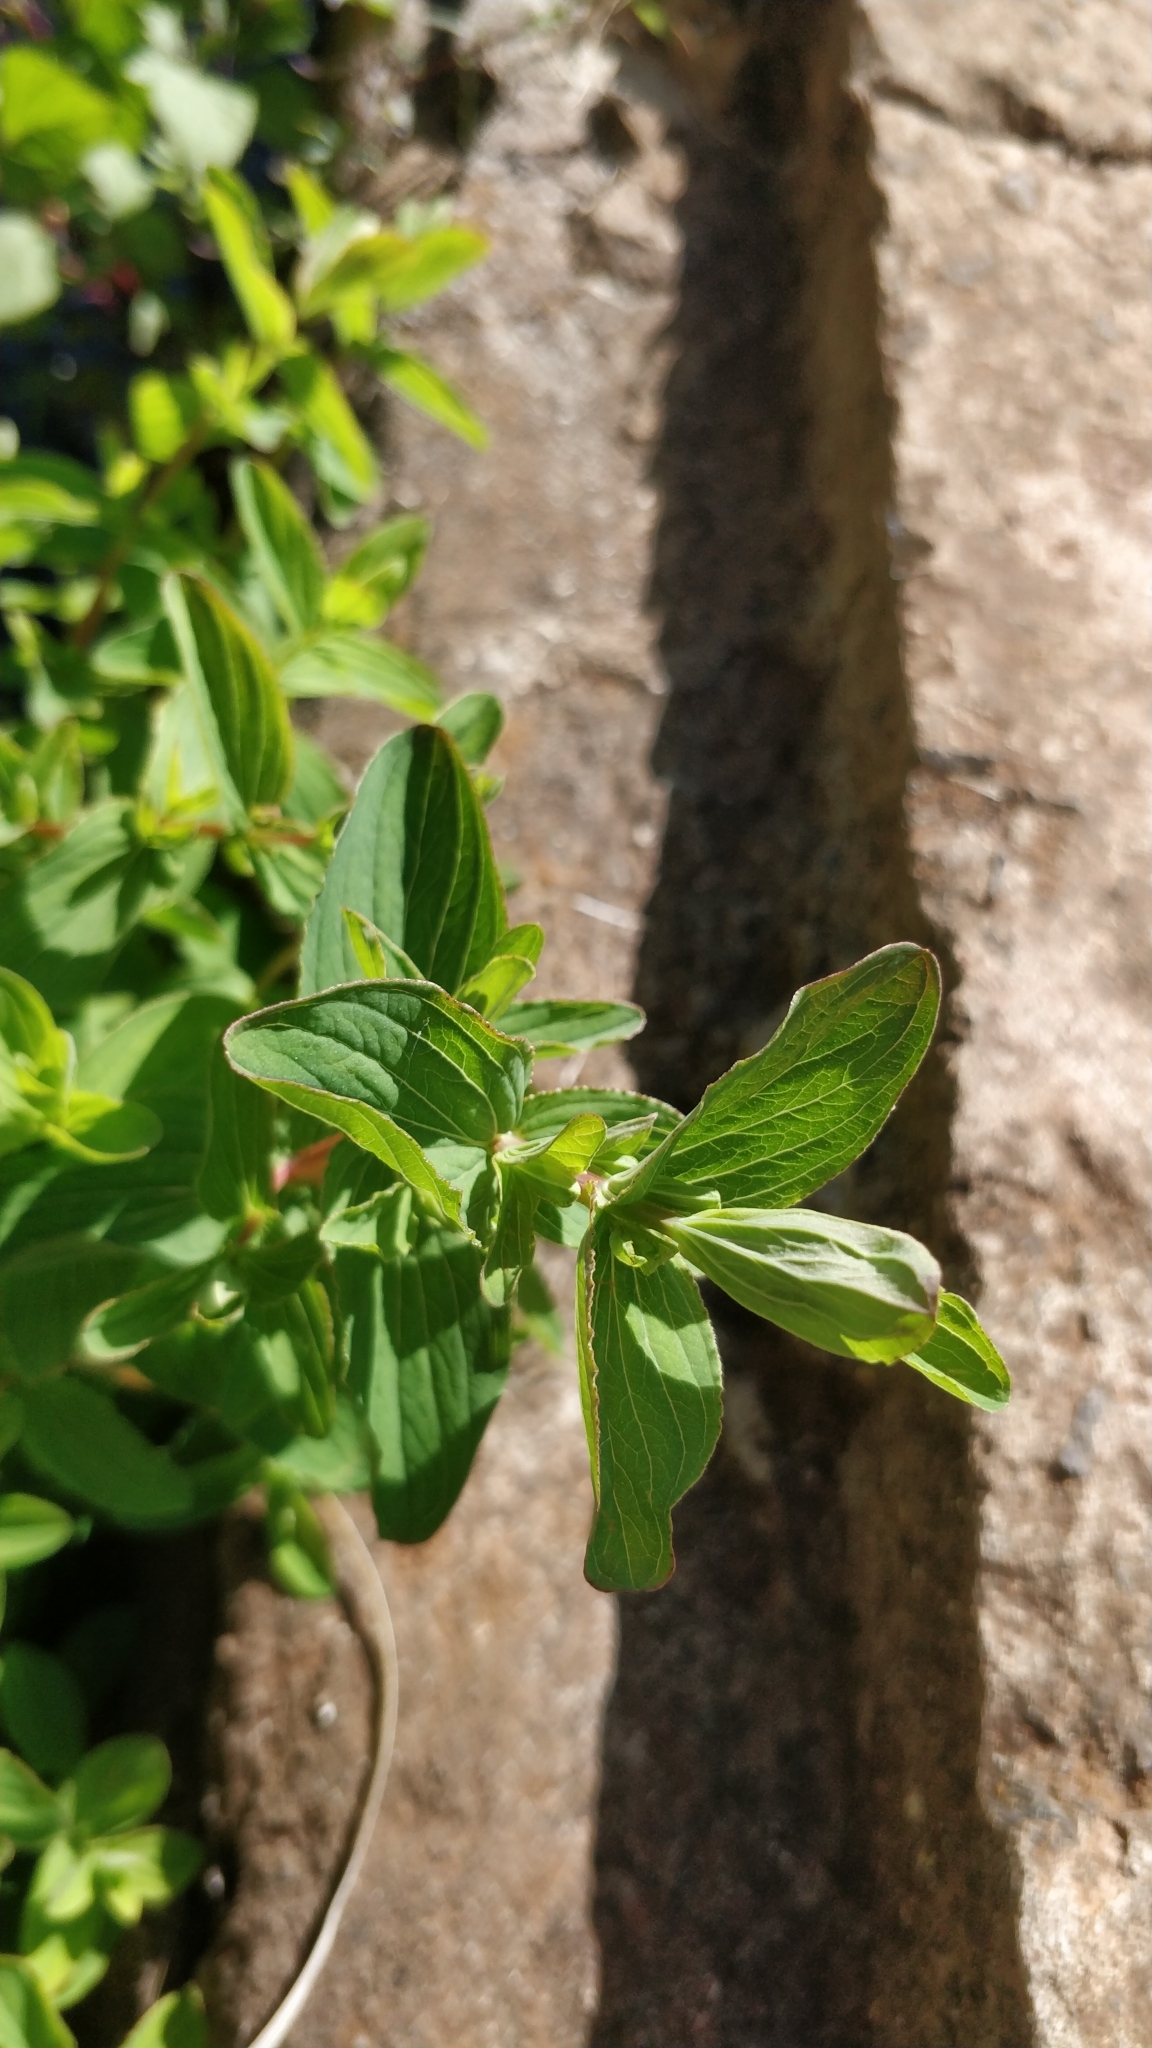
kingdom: Plantae
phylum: Tracheophyta
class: Magnoliopsida
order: Malpighiales
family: Hypericaceae
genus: Hypericum
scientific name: Hypericum undulatum
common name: Wavy st. john's-wort
